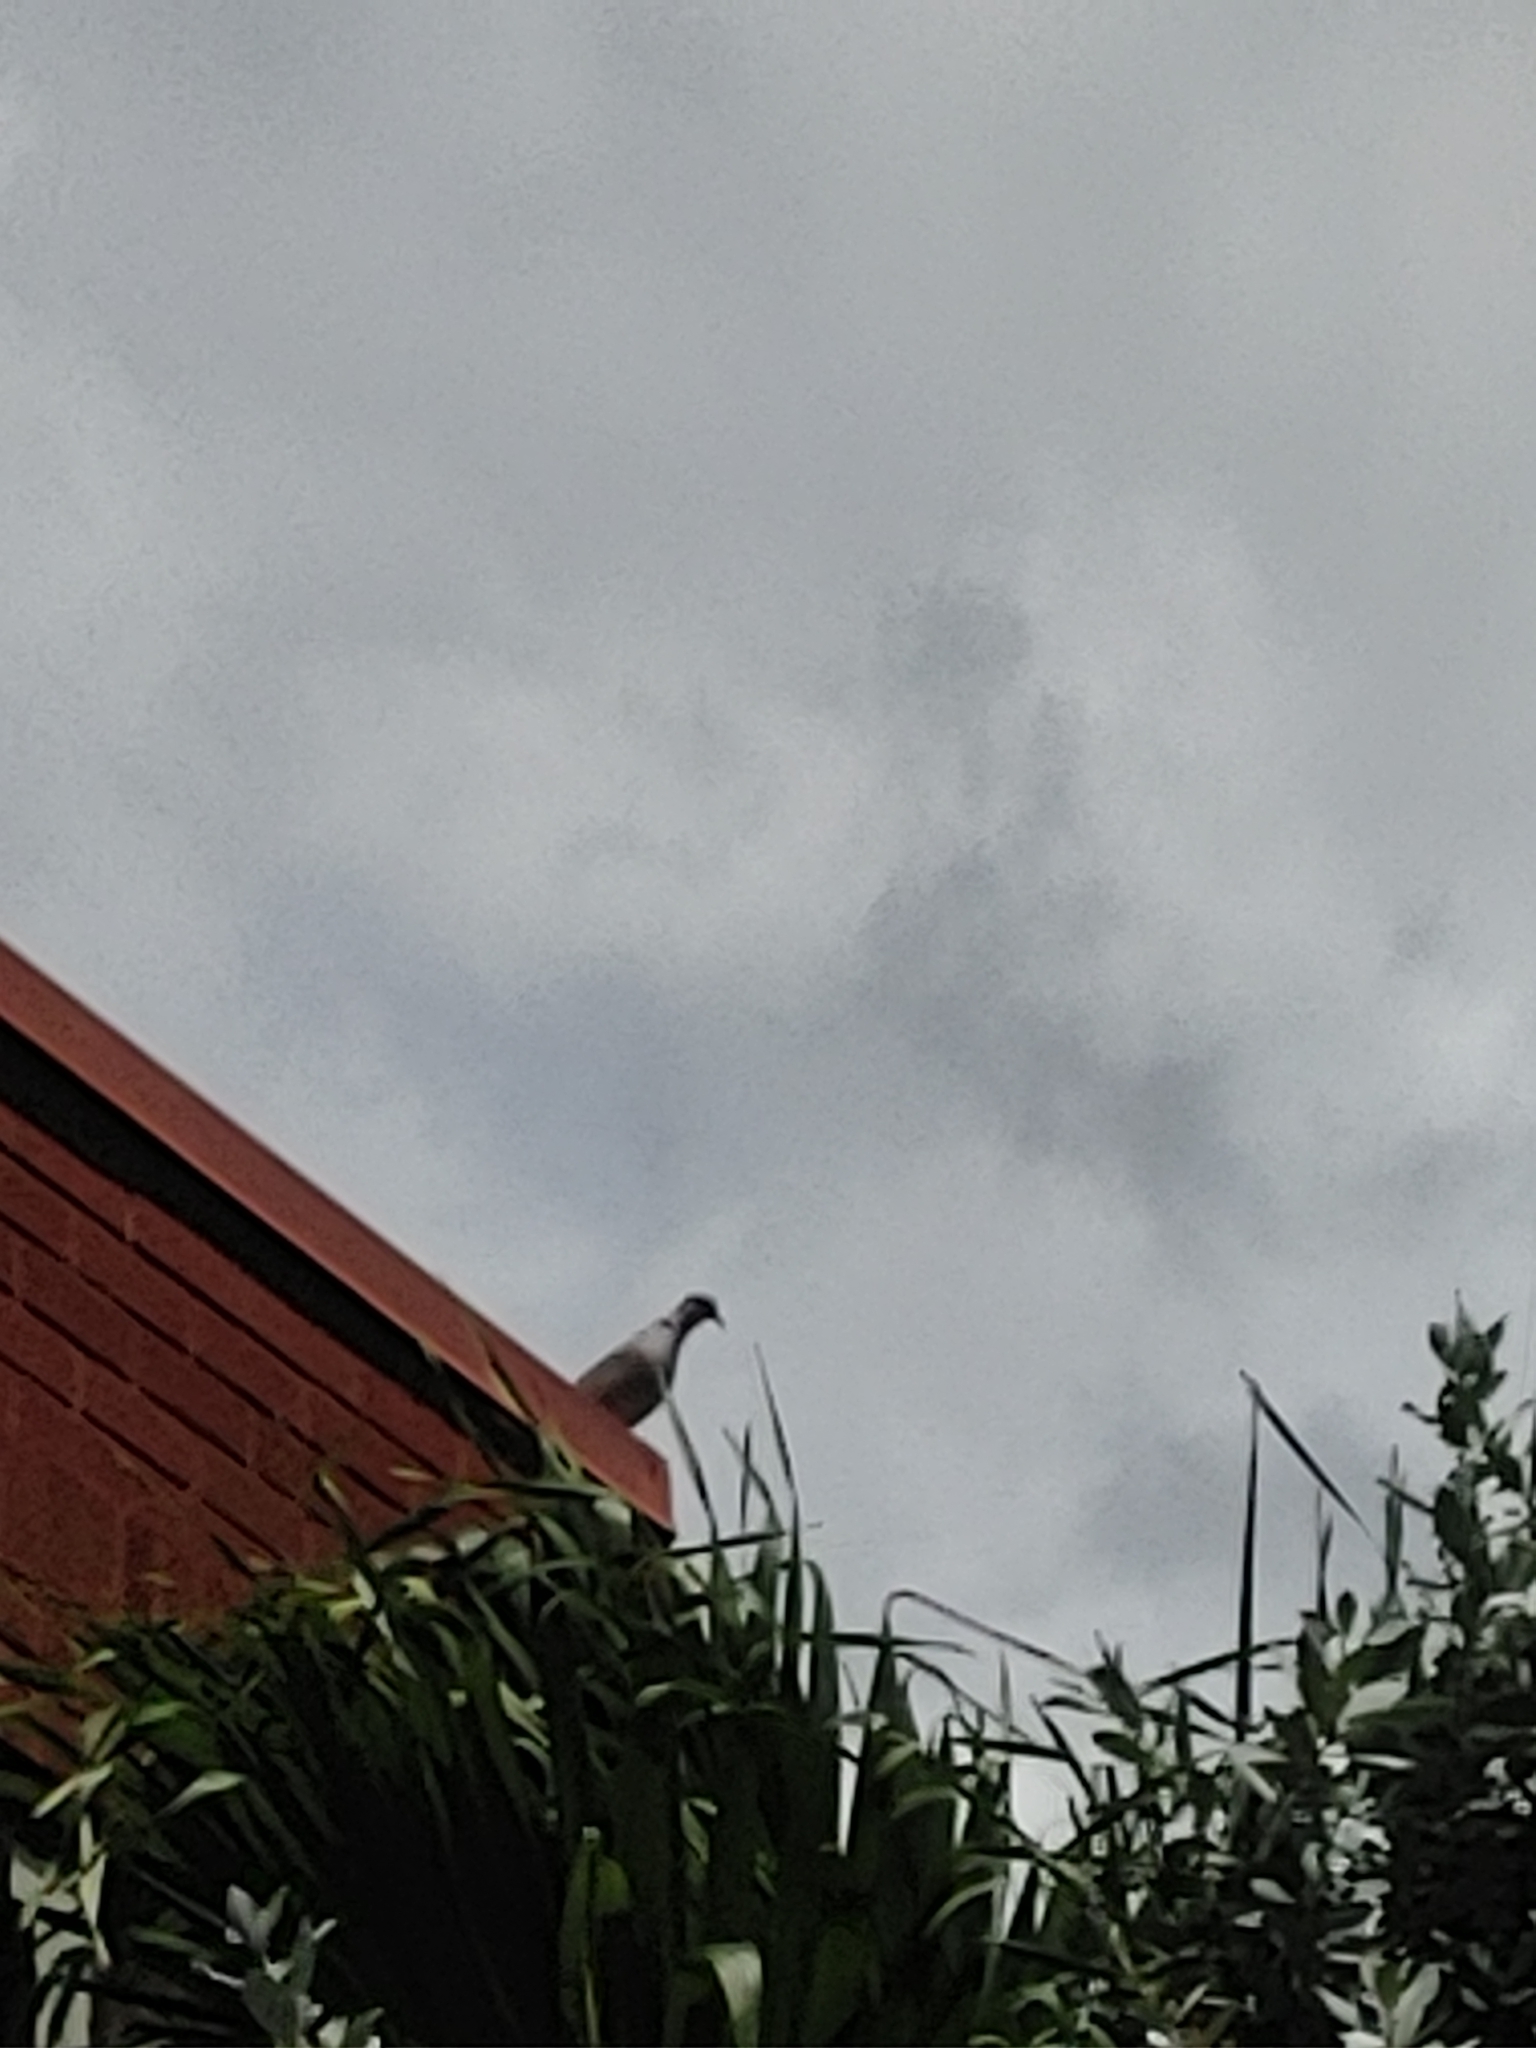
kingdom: Animalia
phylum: Chordata
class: Aves
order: Columbiformes
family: Columbidae
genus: Streptopelia
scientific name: Streptopelia decaocto
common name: Eurasian collared dove
